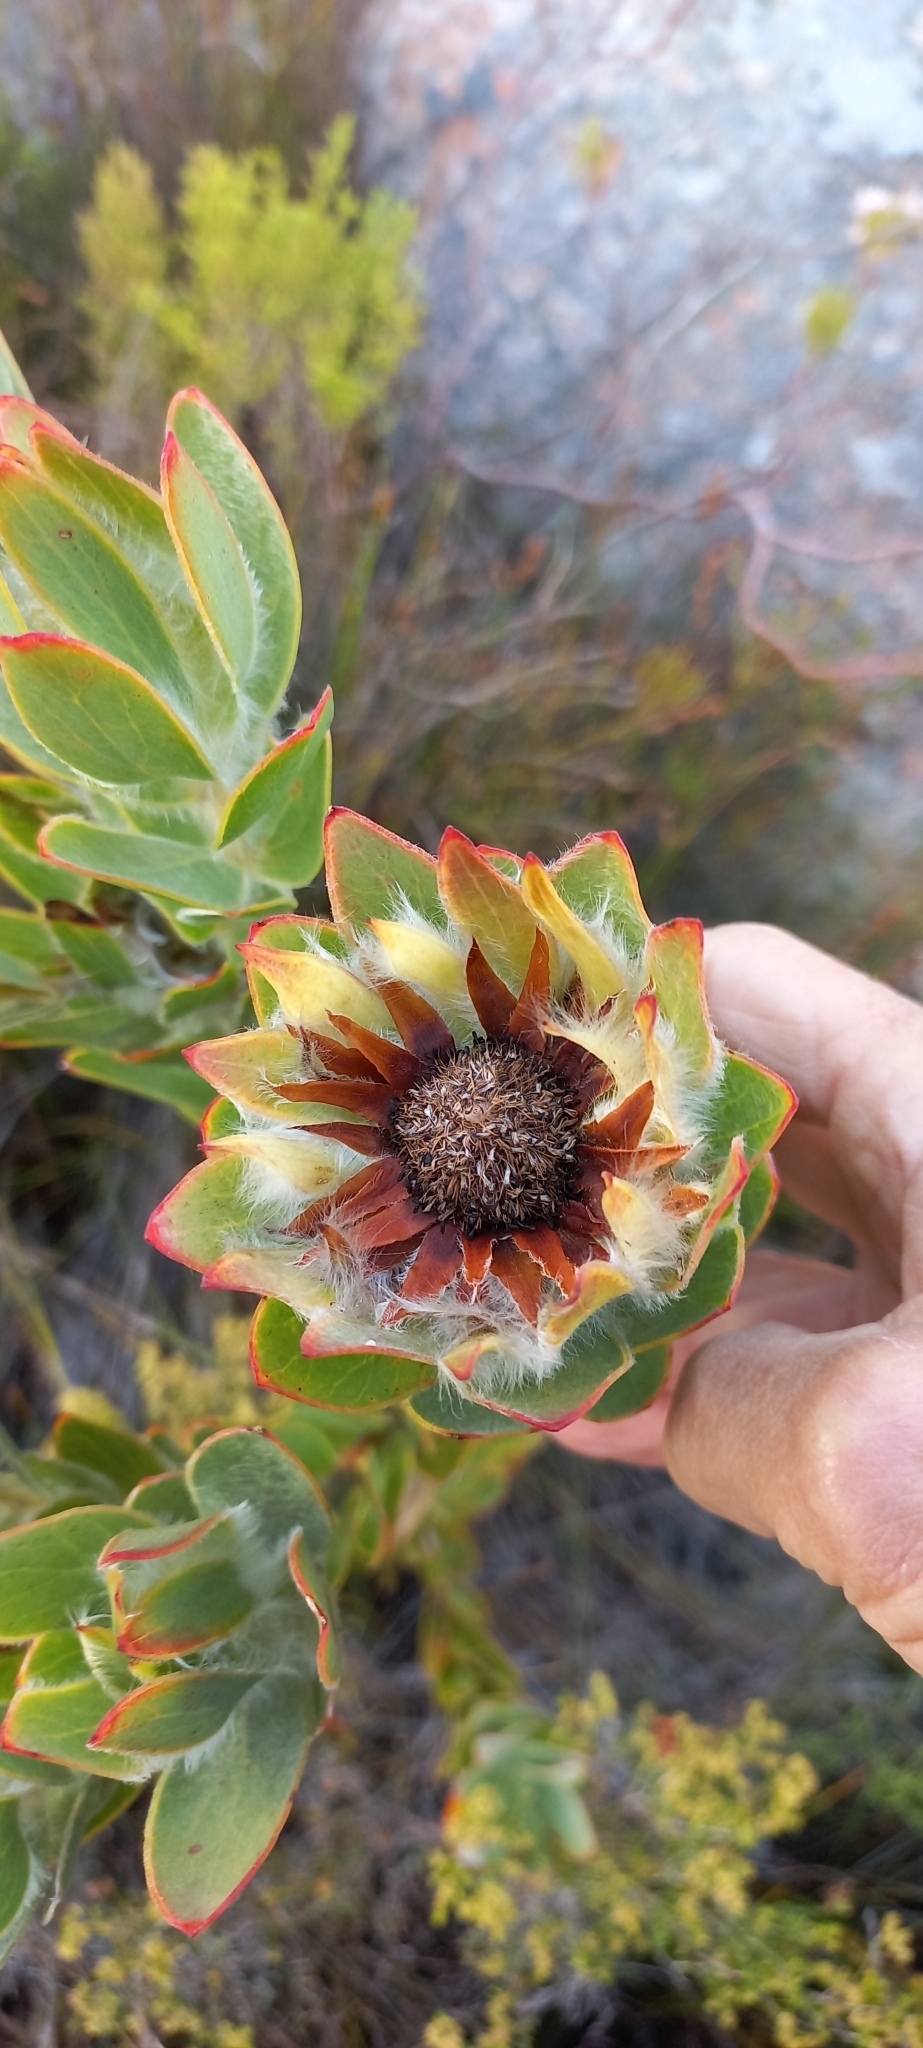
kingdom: Plantae
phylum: Tracheophyta
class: Magnoliopsida
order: Proteales
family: Proteaceae
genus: Leucadendron
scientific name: Leucadendron nervosum
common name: Silky-ruff conebush
